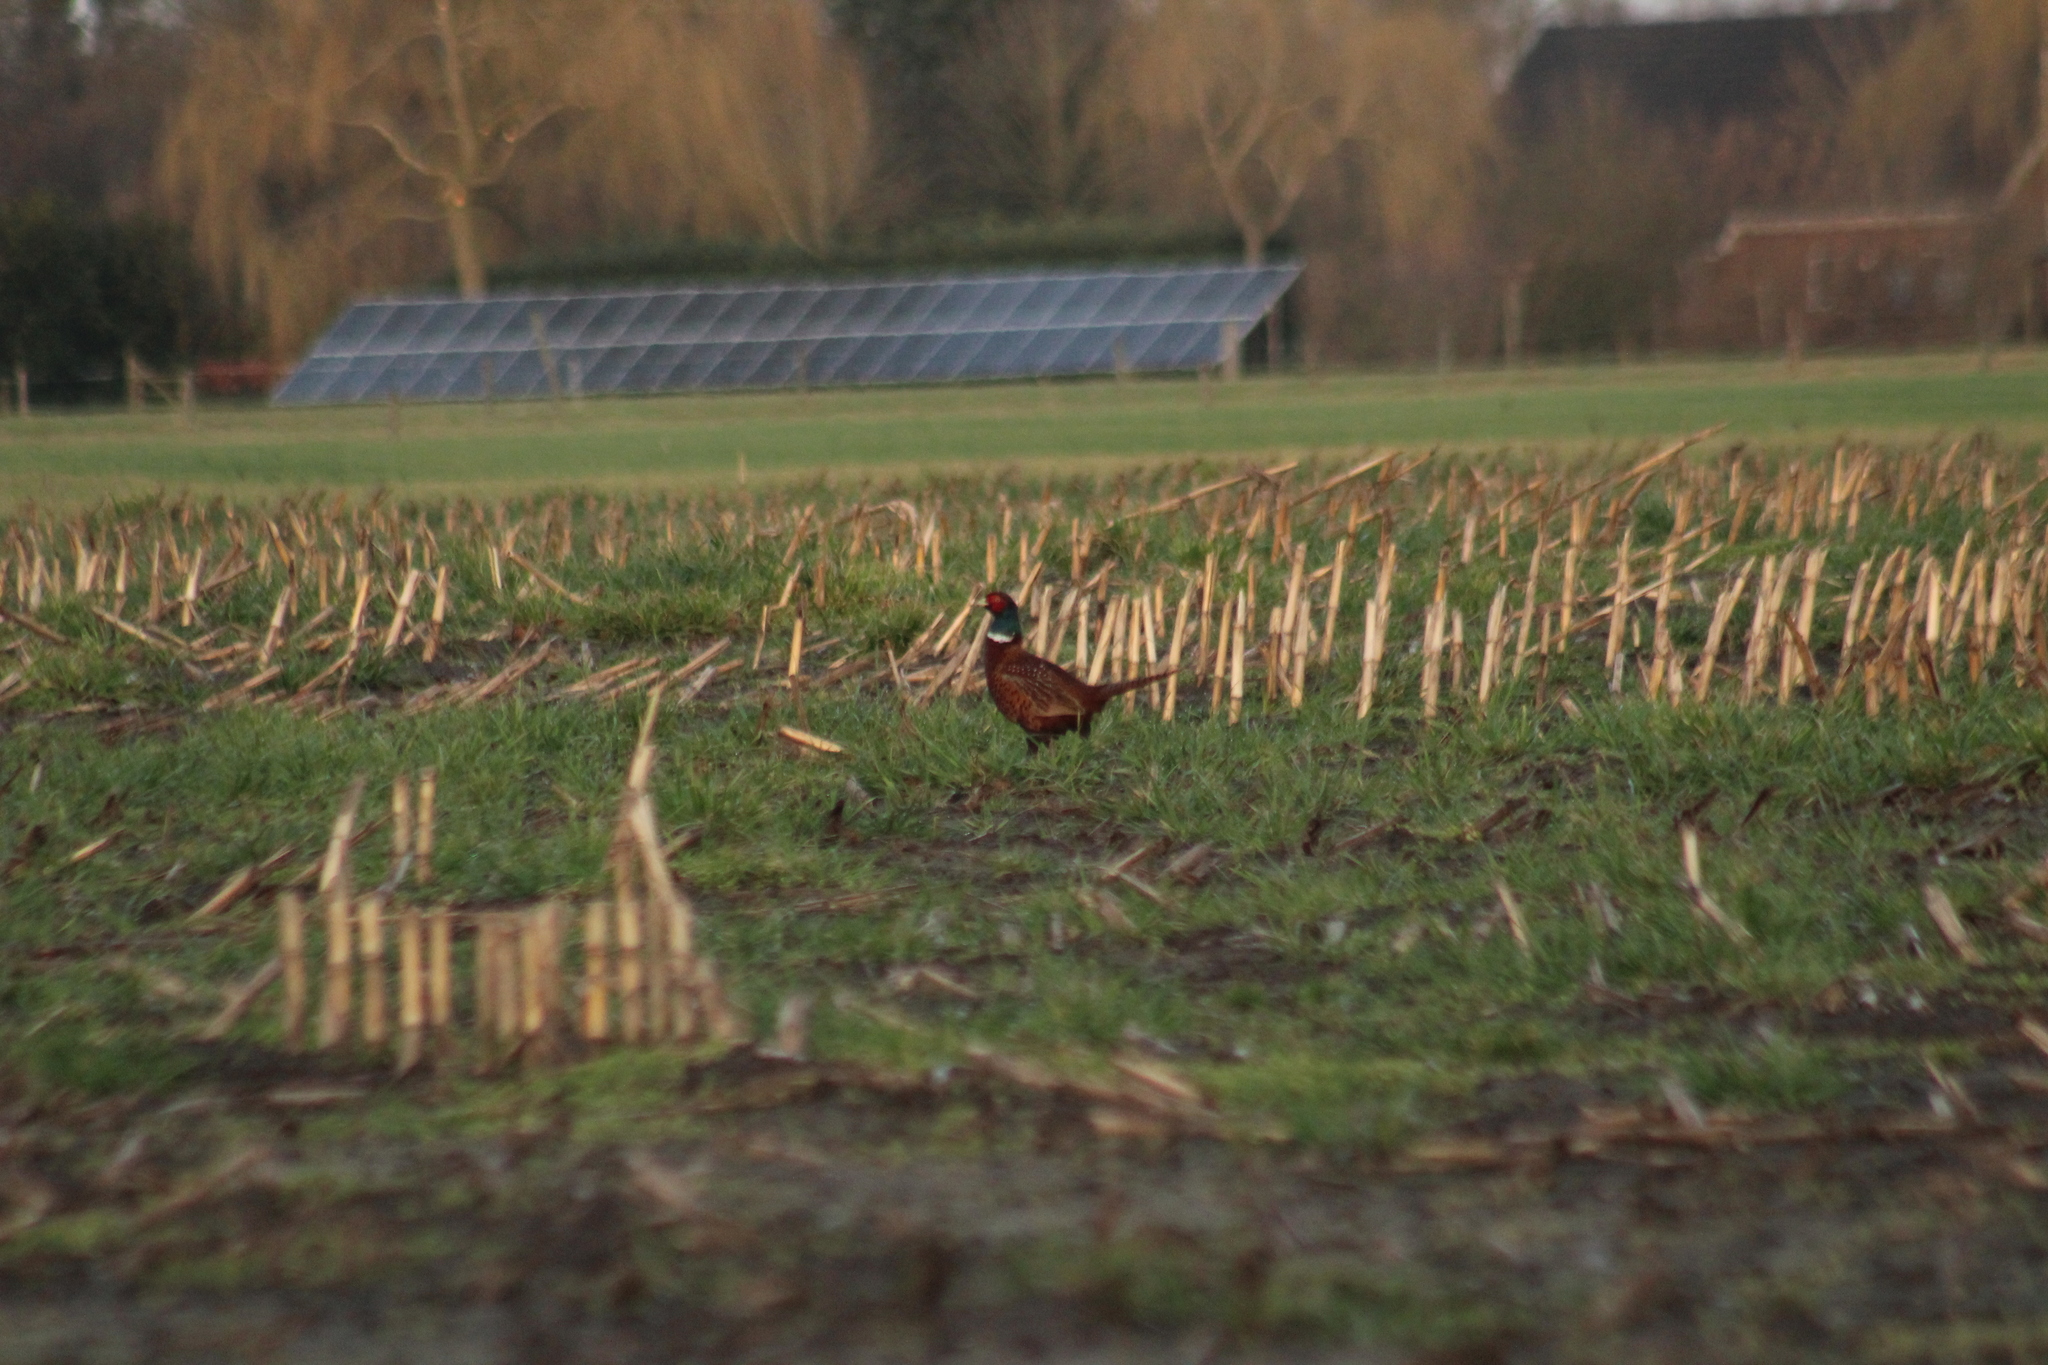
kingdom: Animalia
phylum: Chordata
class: Aves
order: Galliformes
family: Phasianidae
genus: Phasianus
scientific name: Phasianus colchicus
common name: Common pheasant
